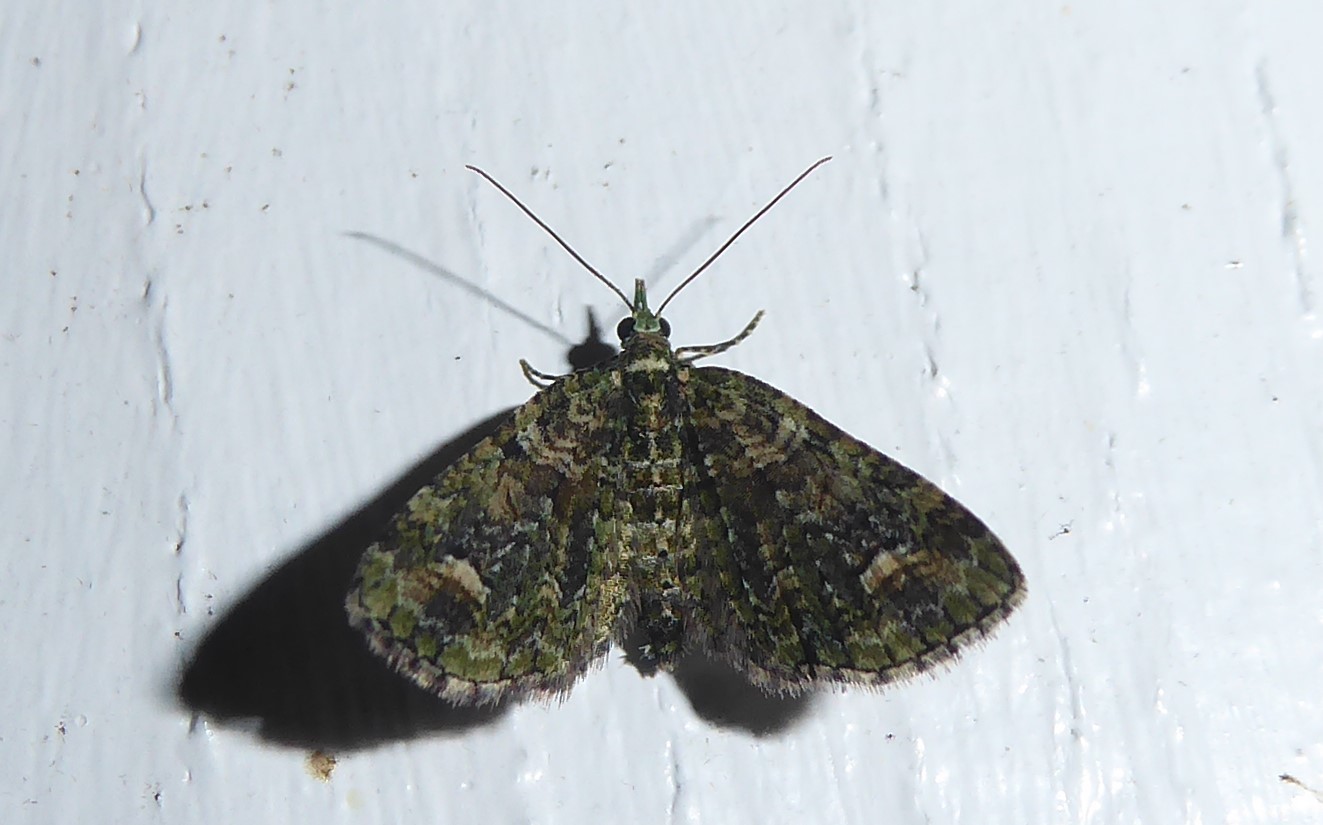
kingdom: Animalia
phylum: Arthropoda
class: Insecta
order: Lepidoptera
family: Geometridae
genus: Idaea
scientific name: Idaea mutanda
